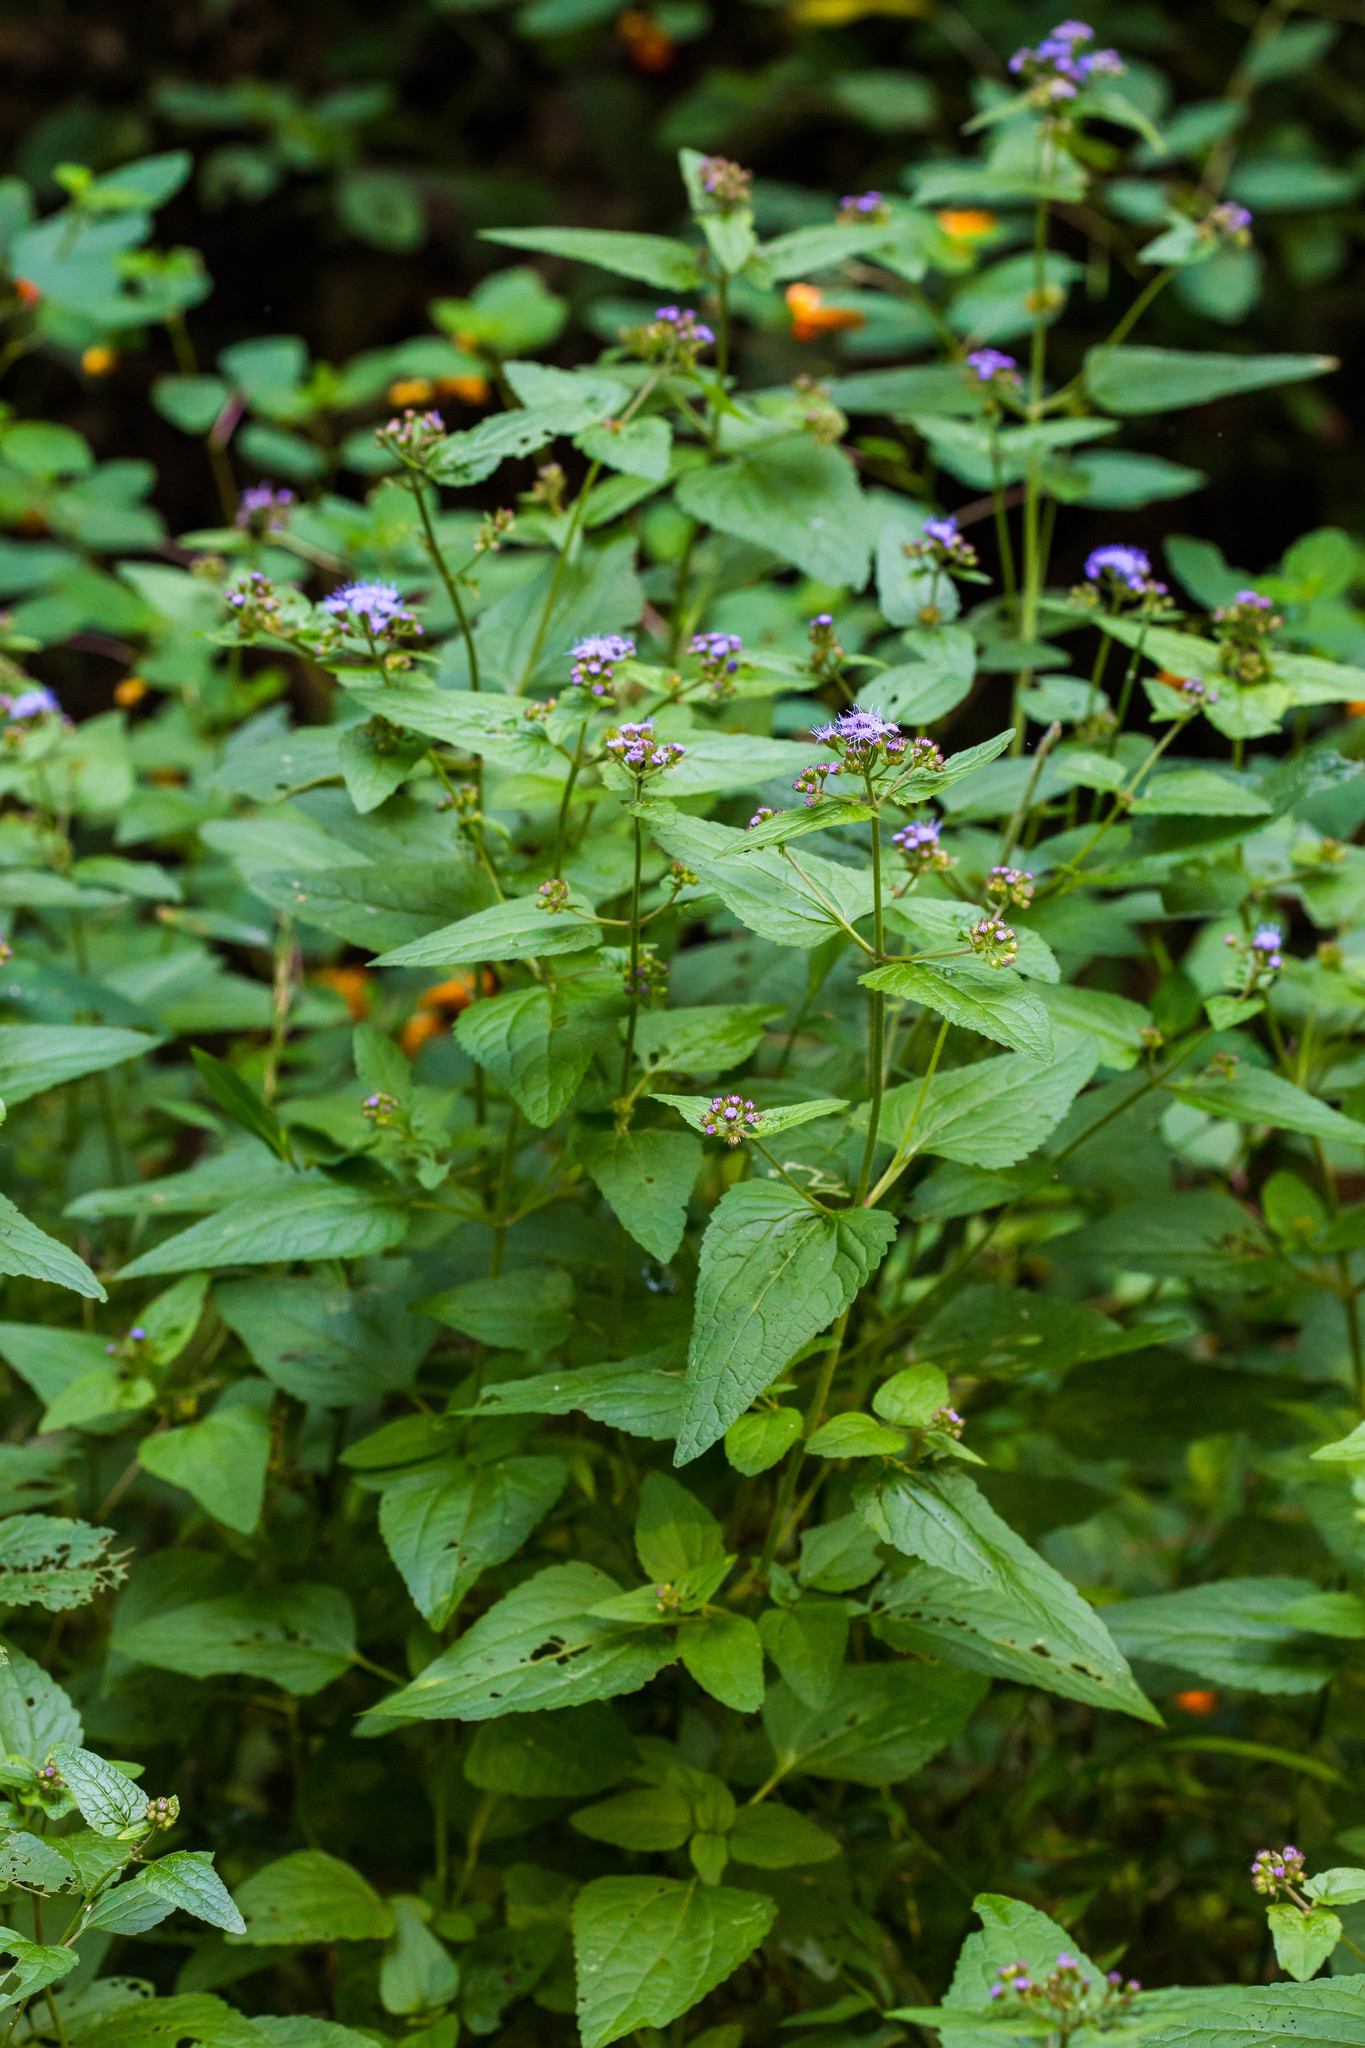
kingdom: Plantae
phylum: Tracheophyta
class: Magnoliopsida
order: Asterales
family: Asteraceae
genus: Conoclinium
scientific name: Conoclinium coelestinum
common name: Blue mistflower
